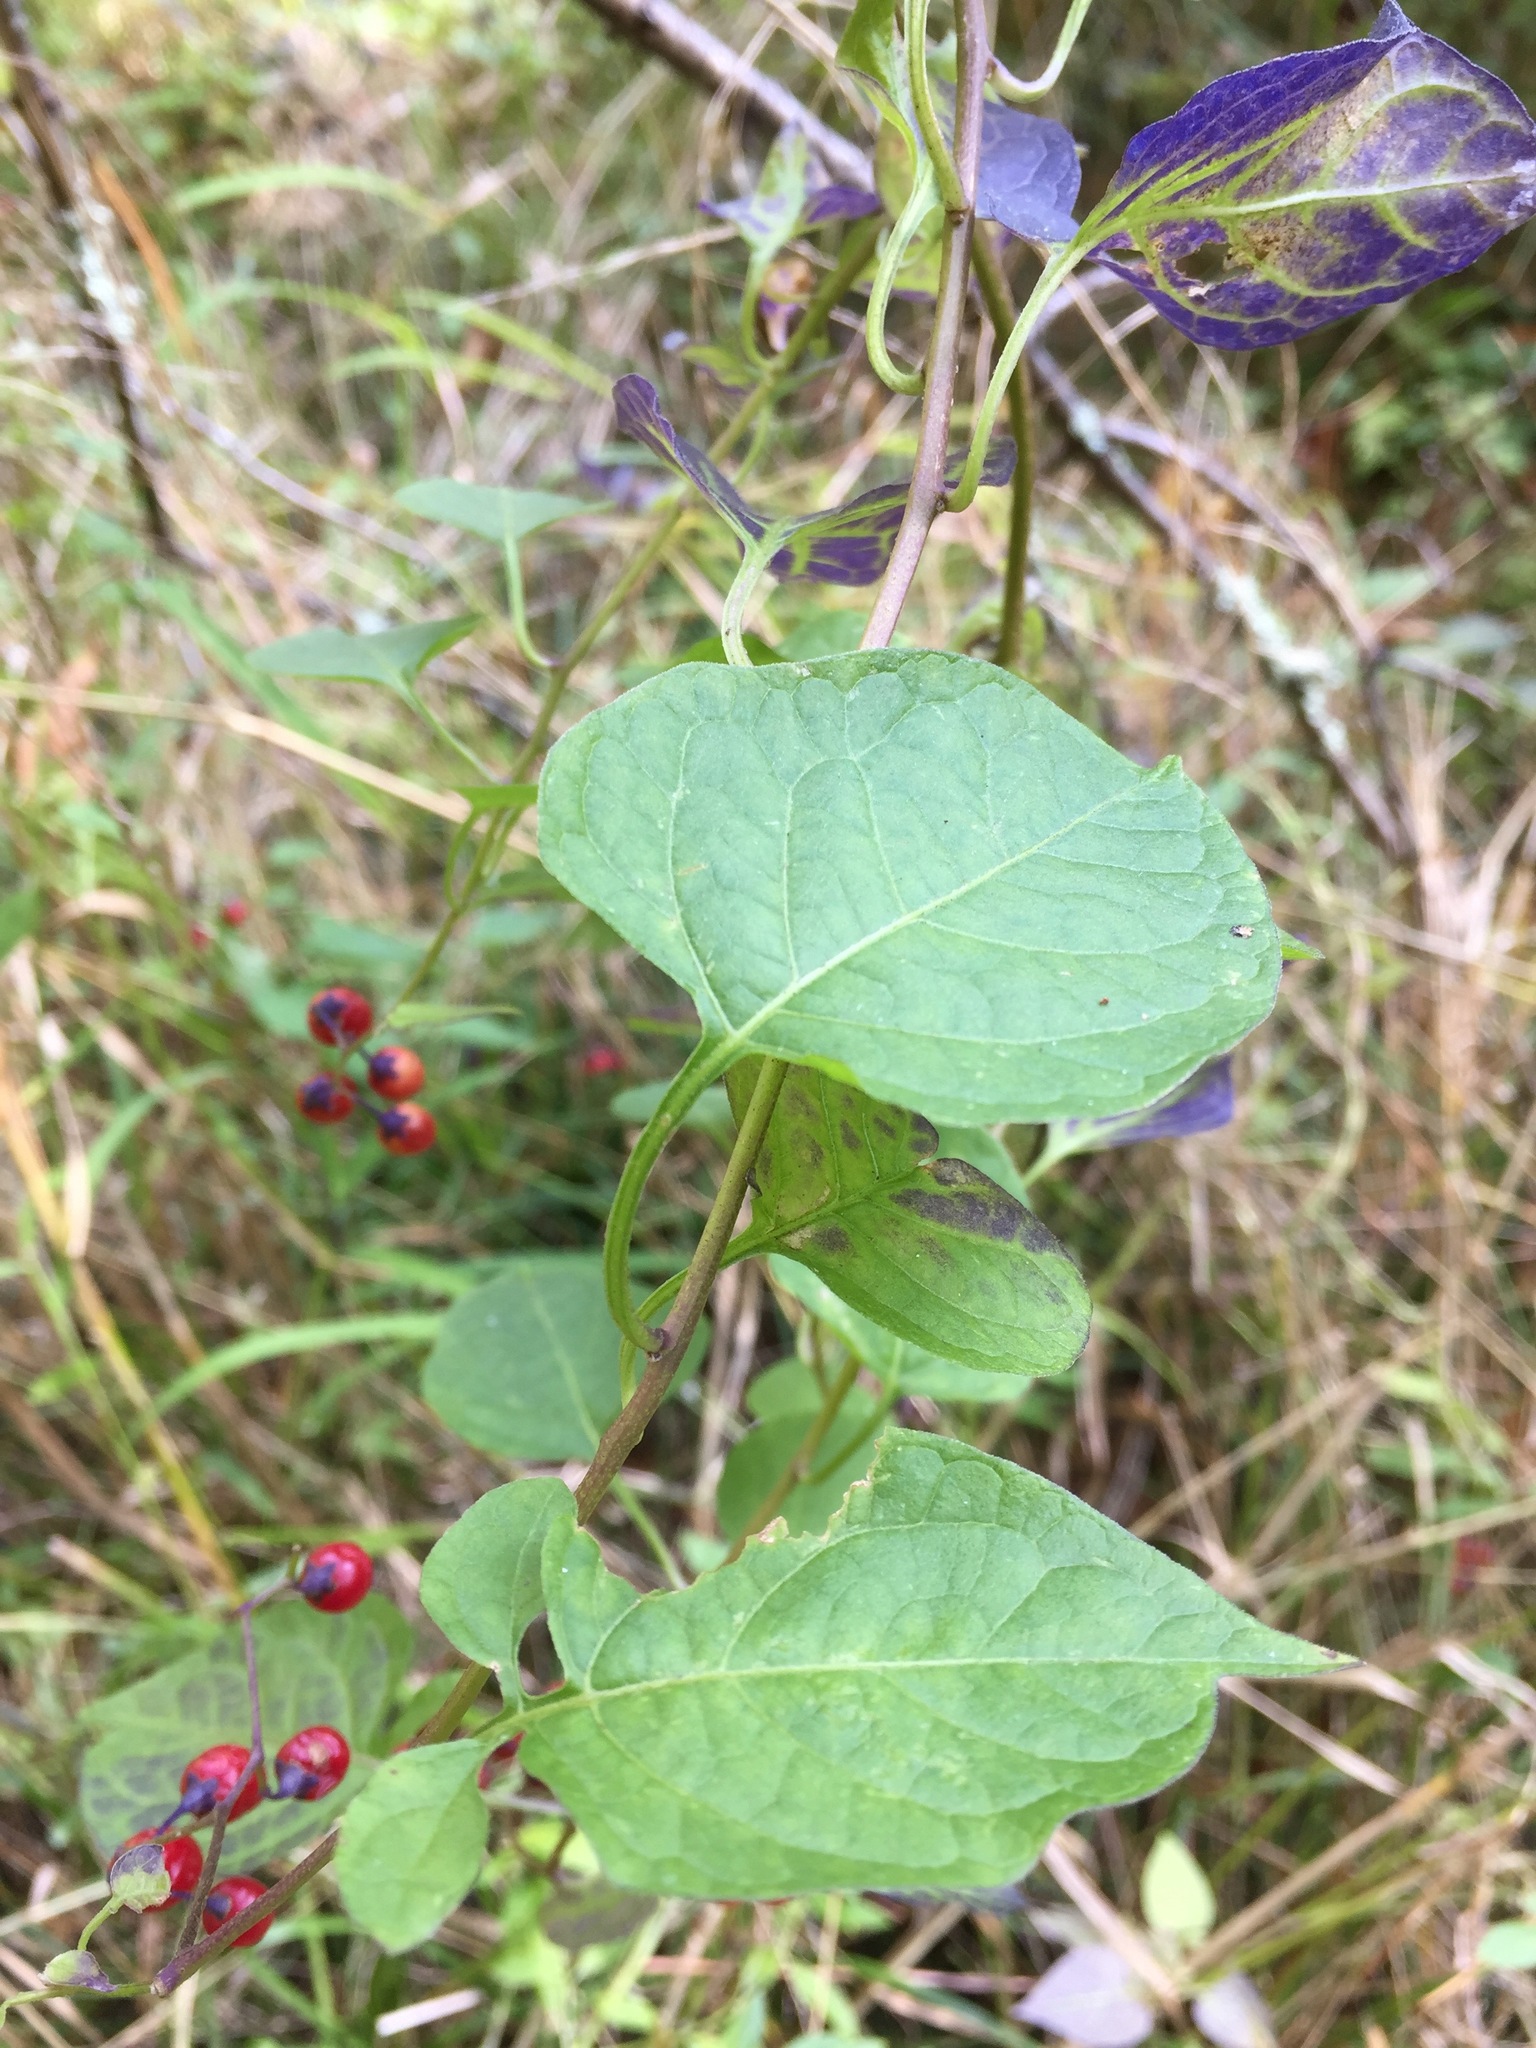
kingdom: Plantae
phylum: Tracheophyta
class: Magnoliopsida
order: Solanales
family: Solanaceae
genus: Solanum
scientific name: Solanum dulcamara
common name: Climbing nightshade
